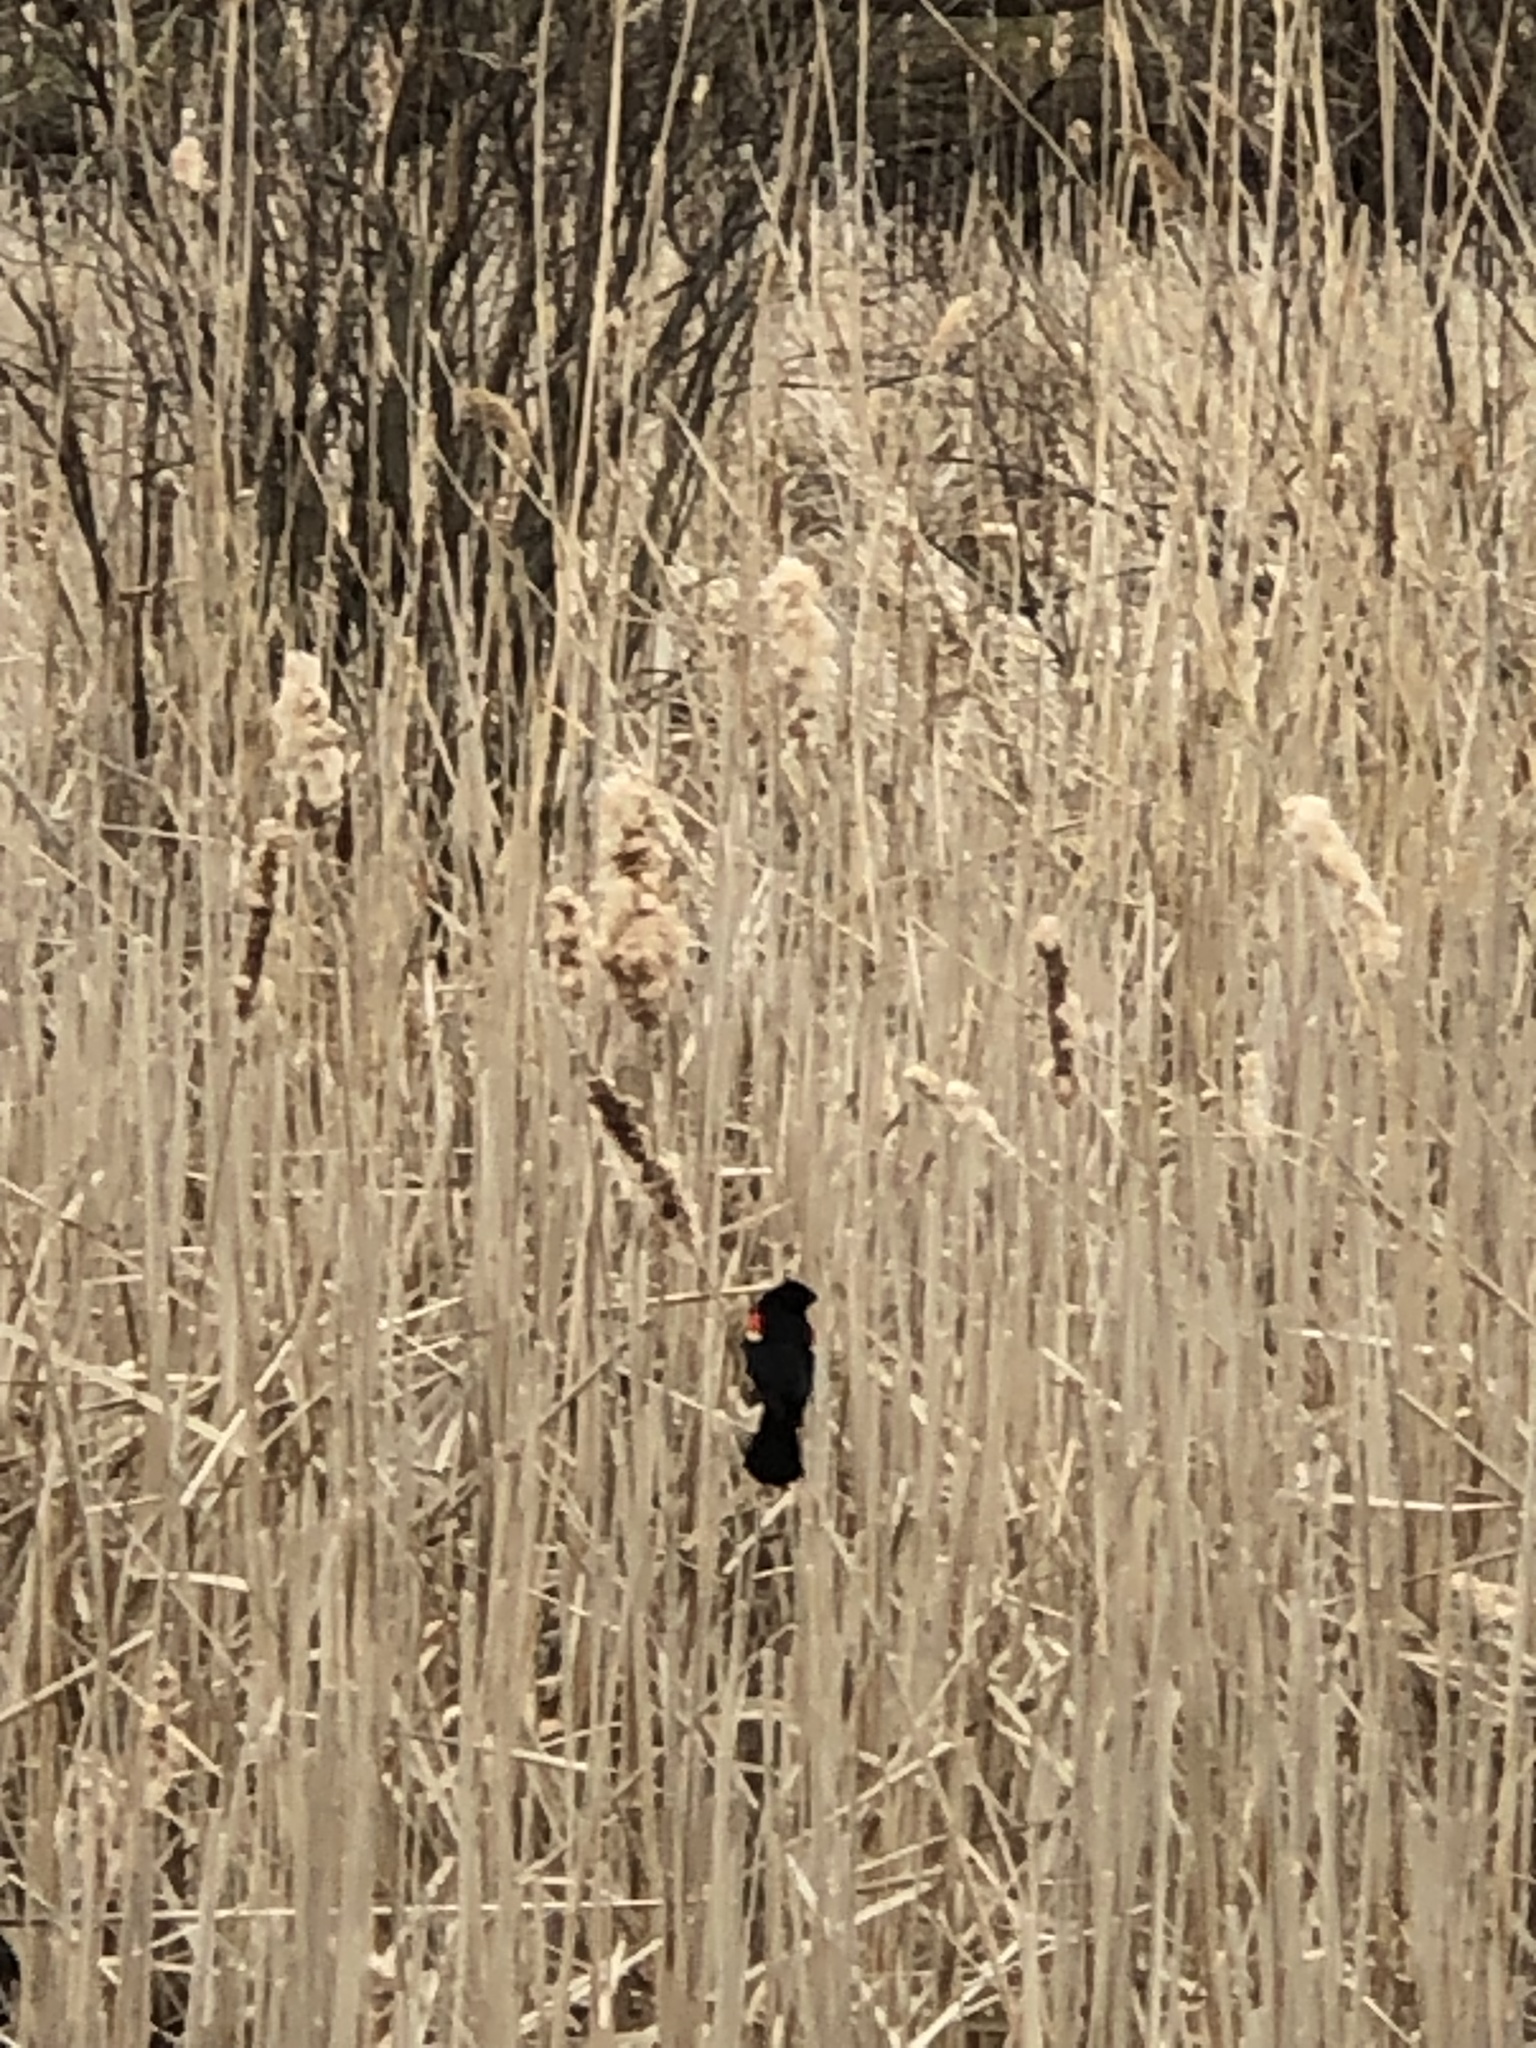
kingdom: Animalia
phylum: Chordata
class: Aves
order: Passeriformes
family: Icteridae
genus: Agelaius
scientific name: Agelaius phoeniceus
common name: Red-winged blackbird
